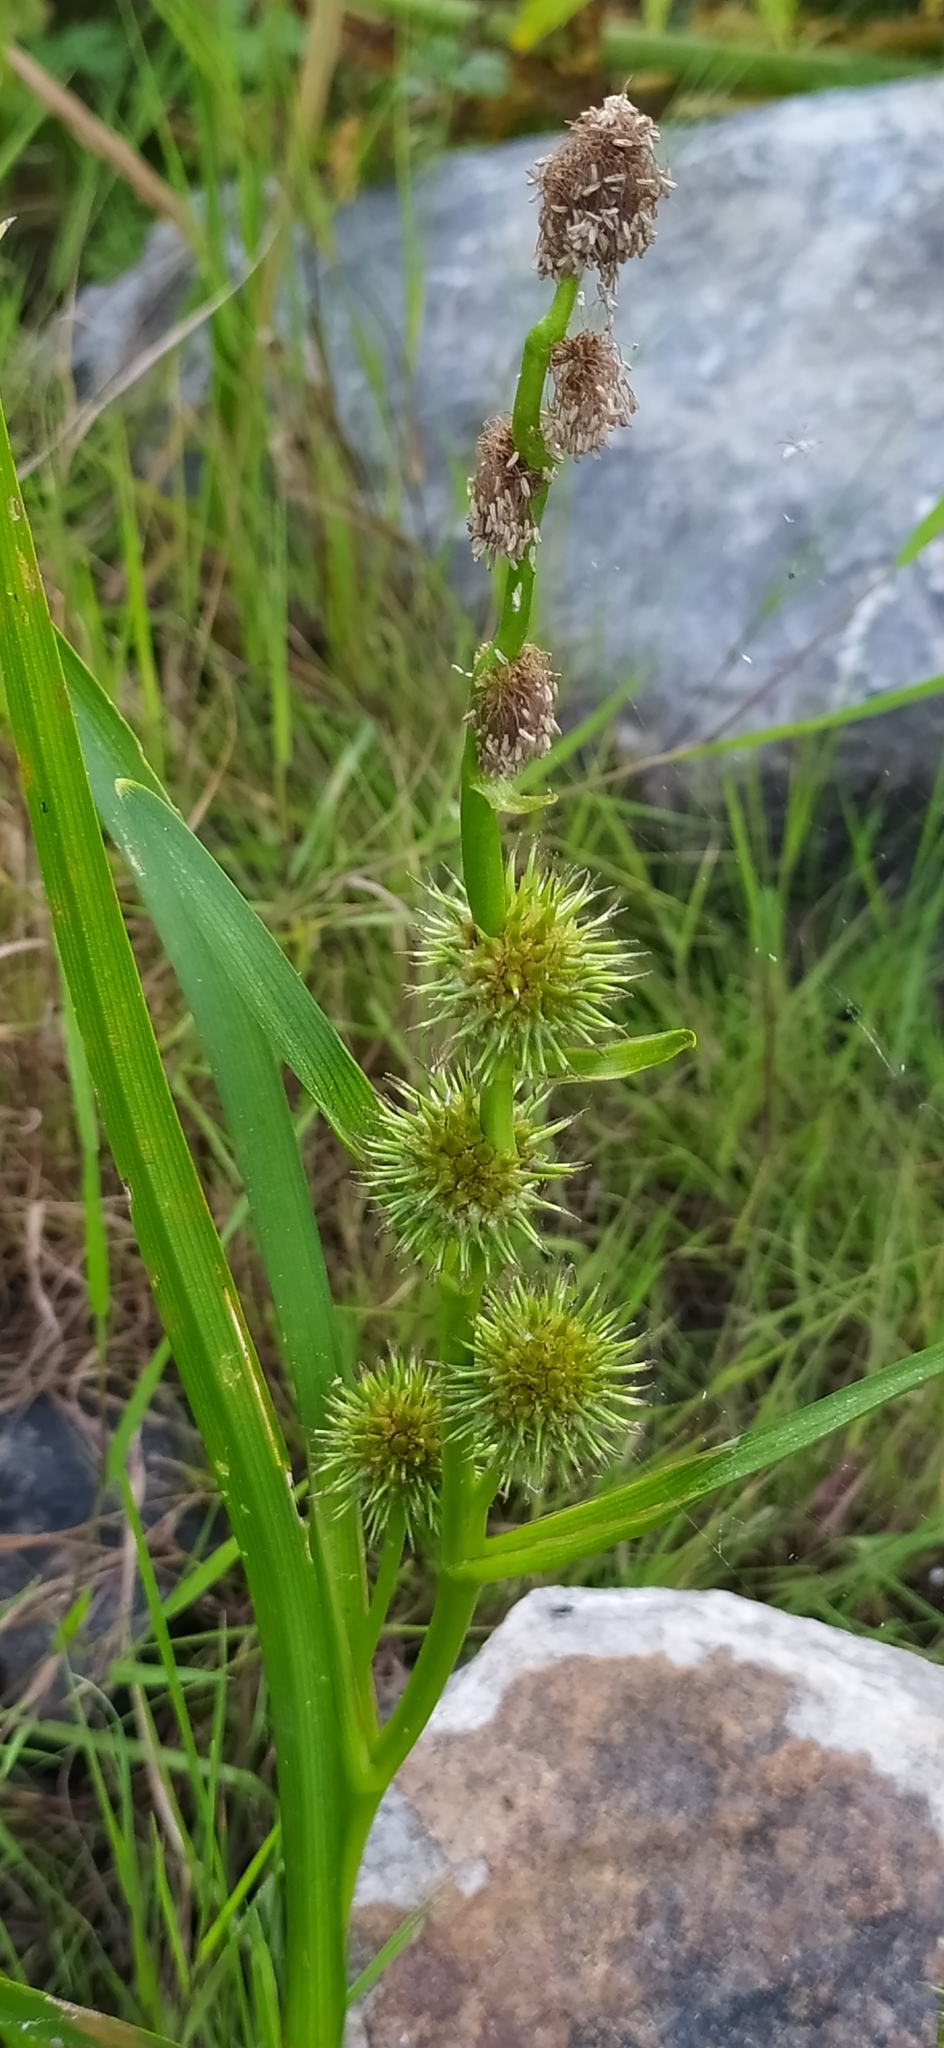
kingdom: Plantae
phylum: Tracheophyta
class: Liliopsida
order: Poales
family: Typhaceae
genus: Sparganium
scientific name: Sparganium emersum
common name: Unbranched bur-reed
